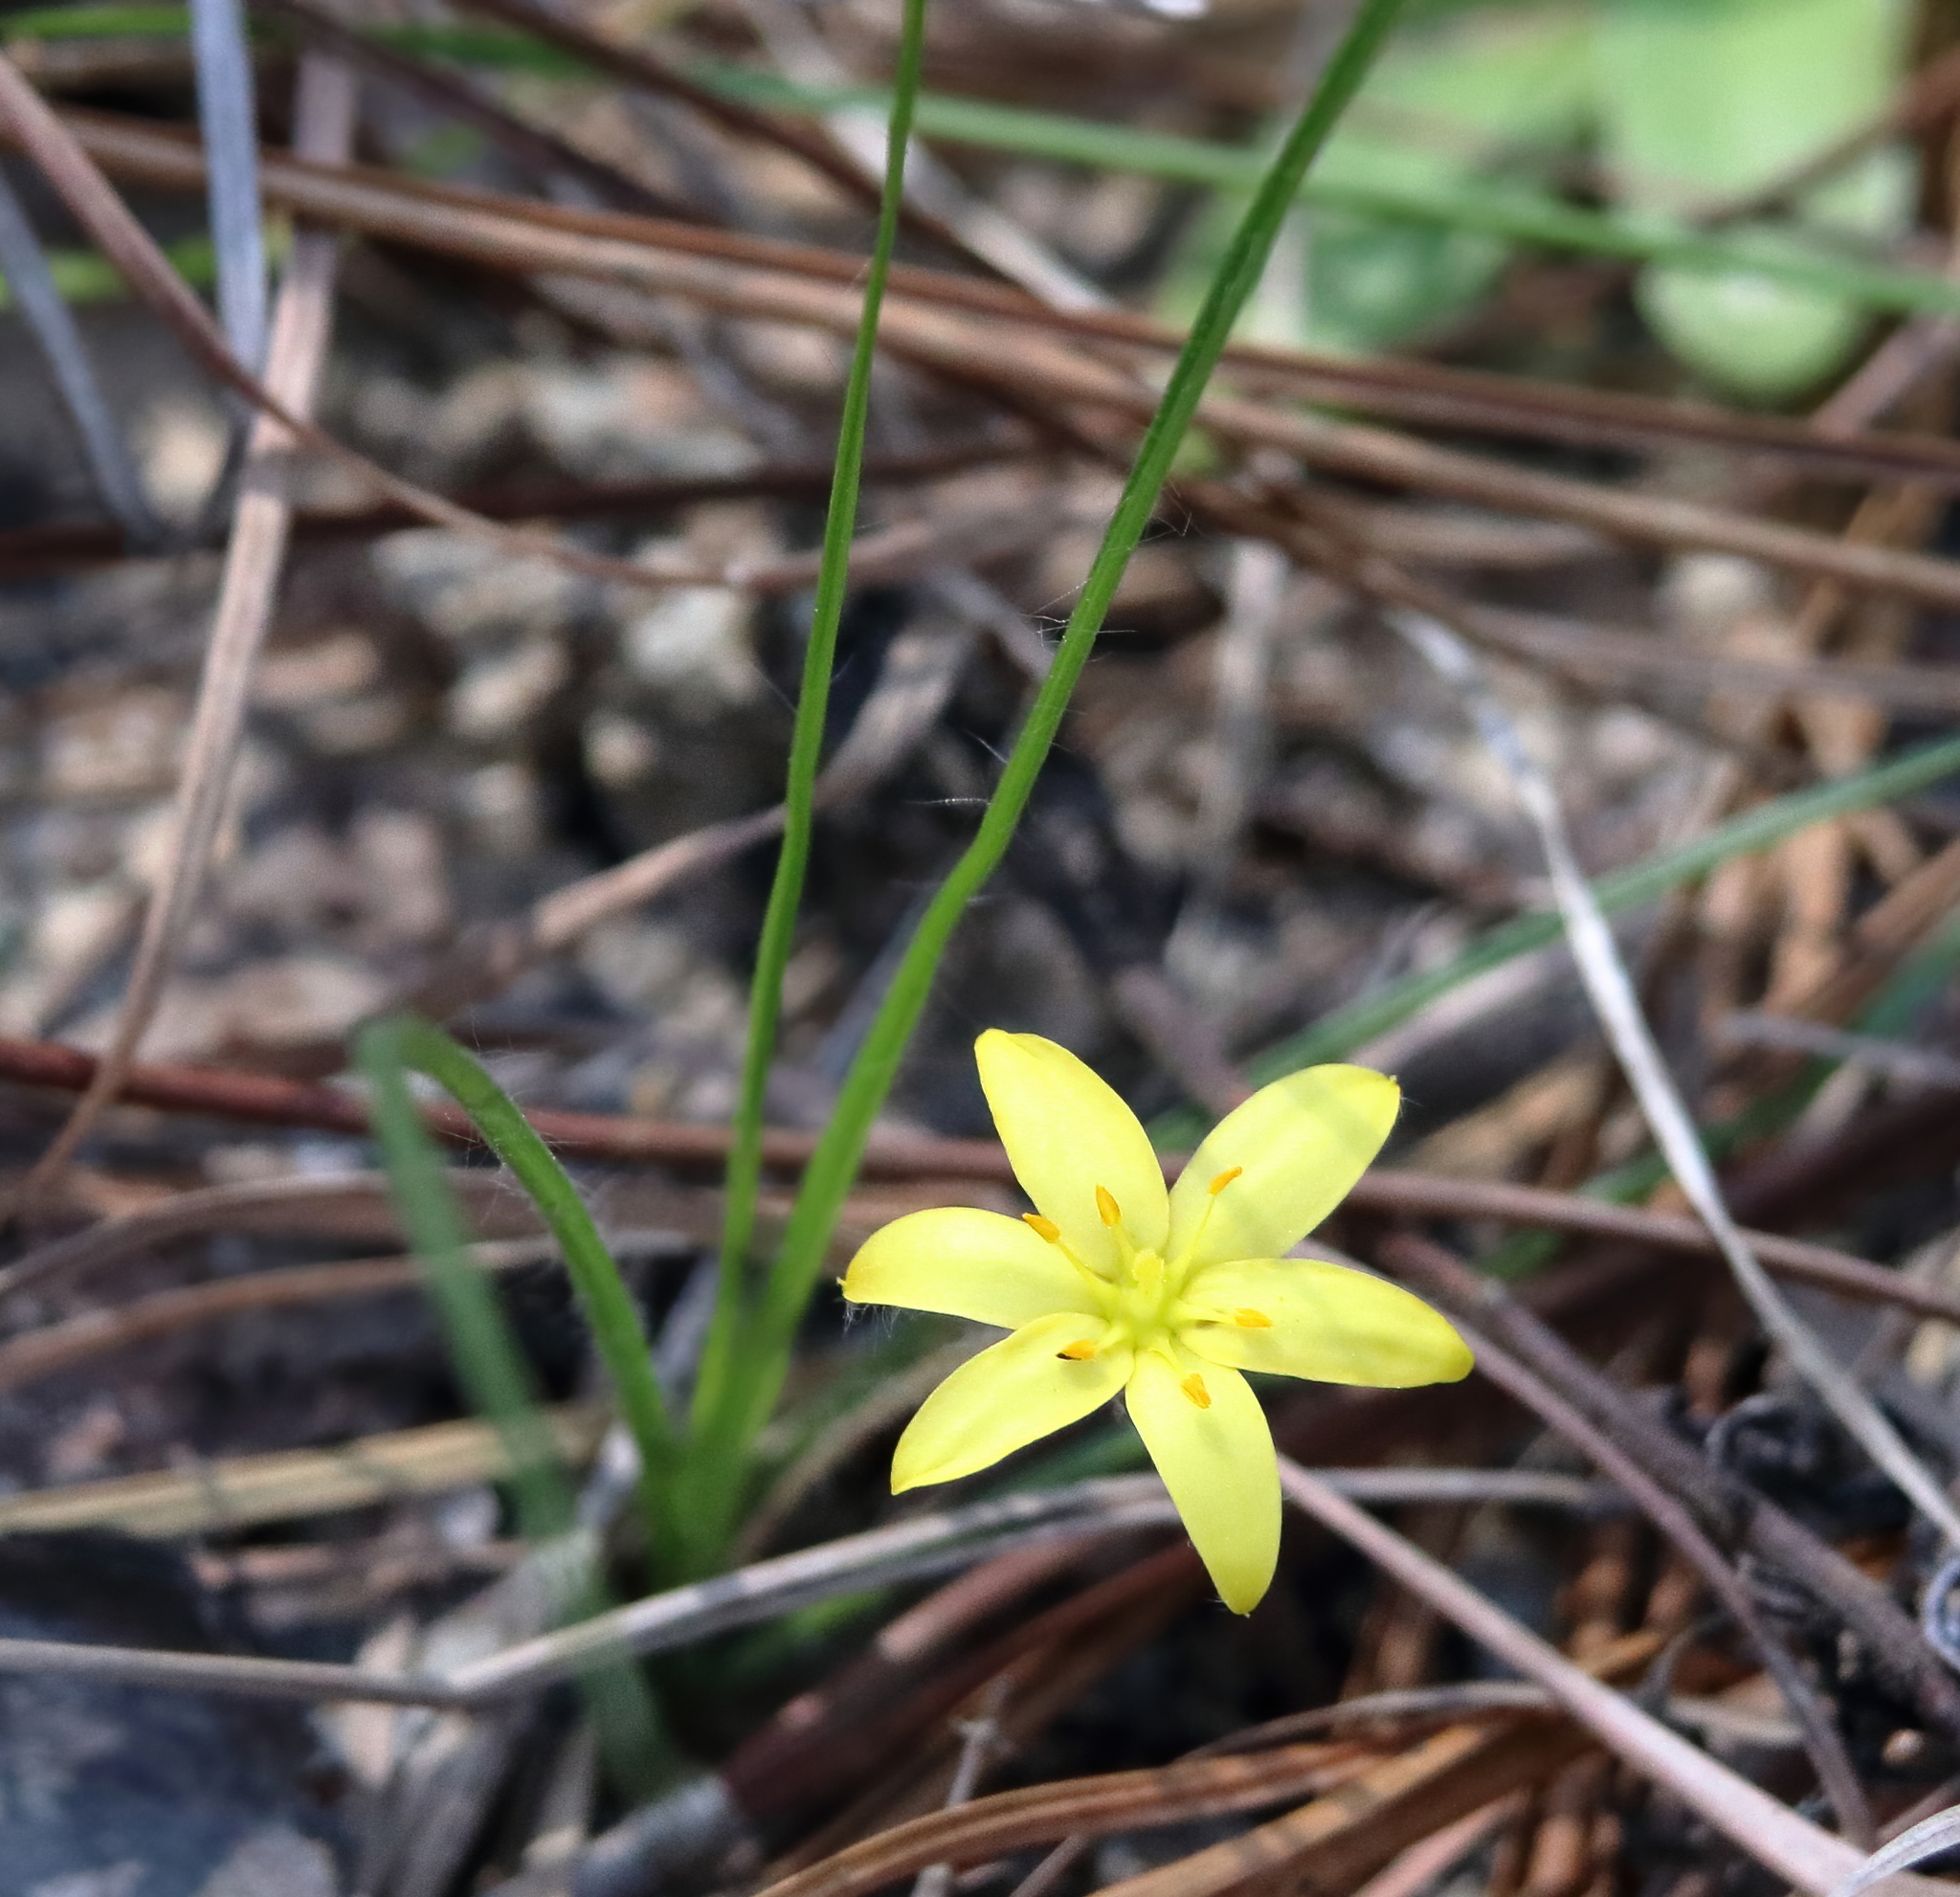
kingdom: Plantae
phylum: Tracheophyta
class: Liliopsida
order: Asparagales
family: Hypoxidaceae
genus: Hypoxis
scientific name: Hypoxis hirsuta
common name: Common goldstar
